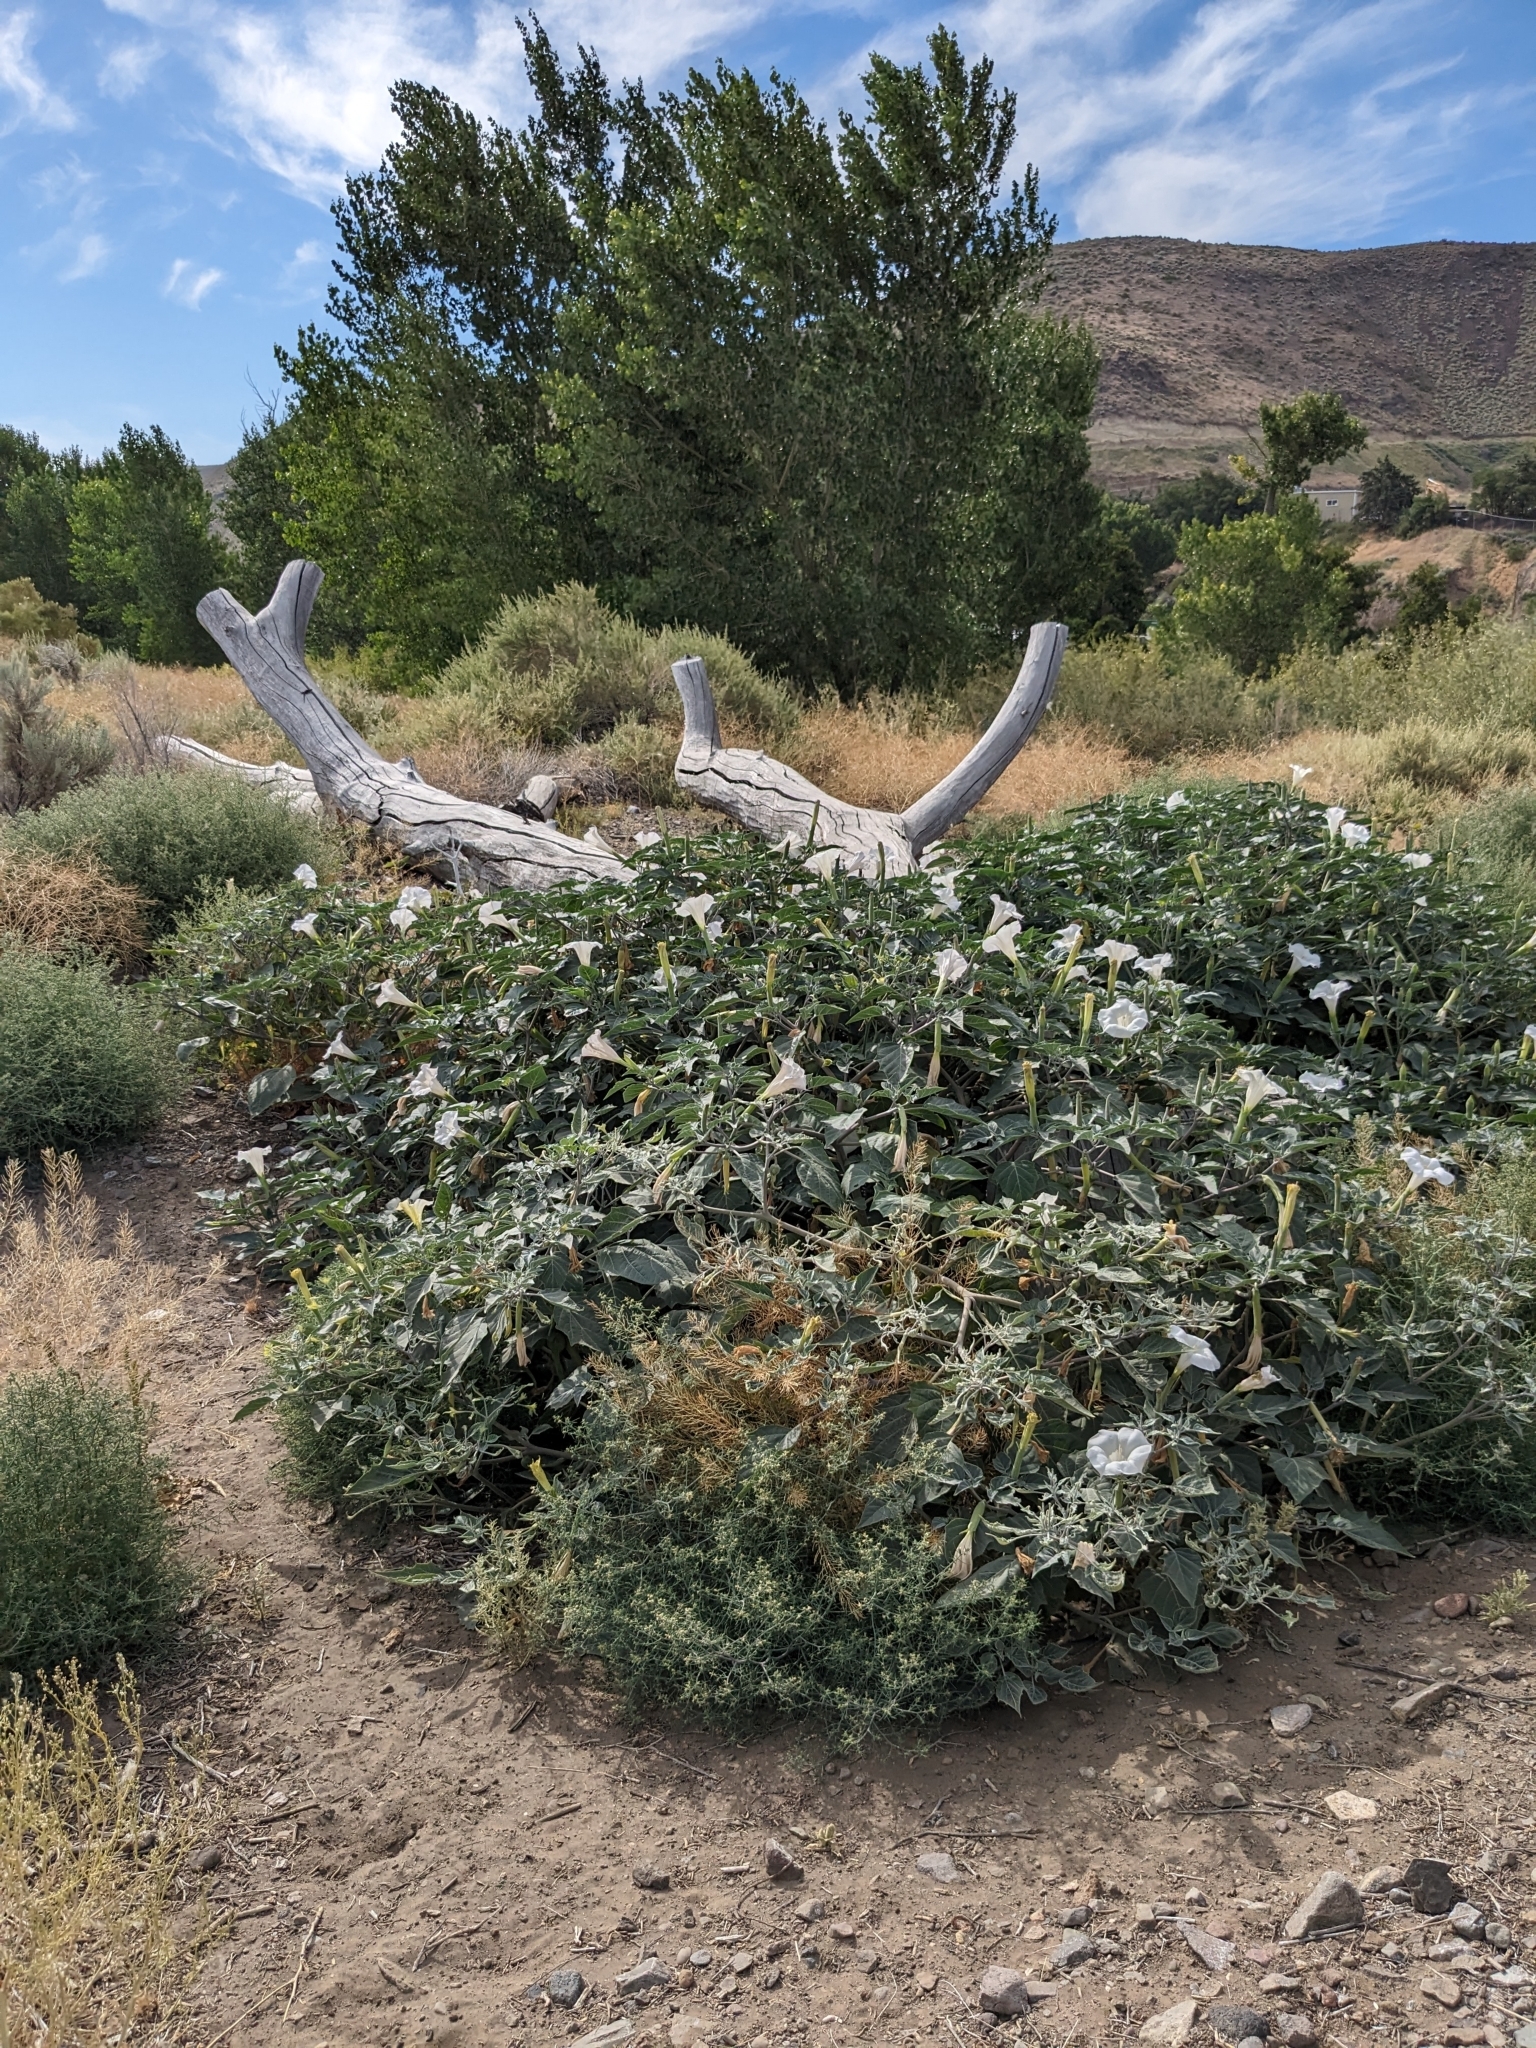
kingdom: Plantae
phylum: Tracheophyta
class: Magnoliopsida
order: Solanales
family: Solanaceae
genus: Datura
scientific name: Datura wrightii
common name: Sacred thorn-apple
